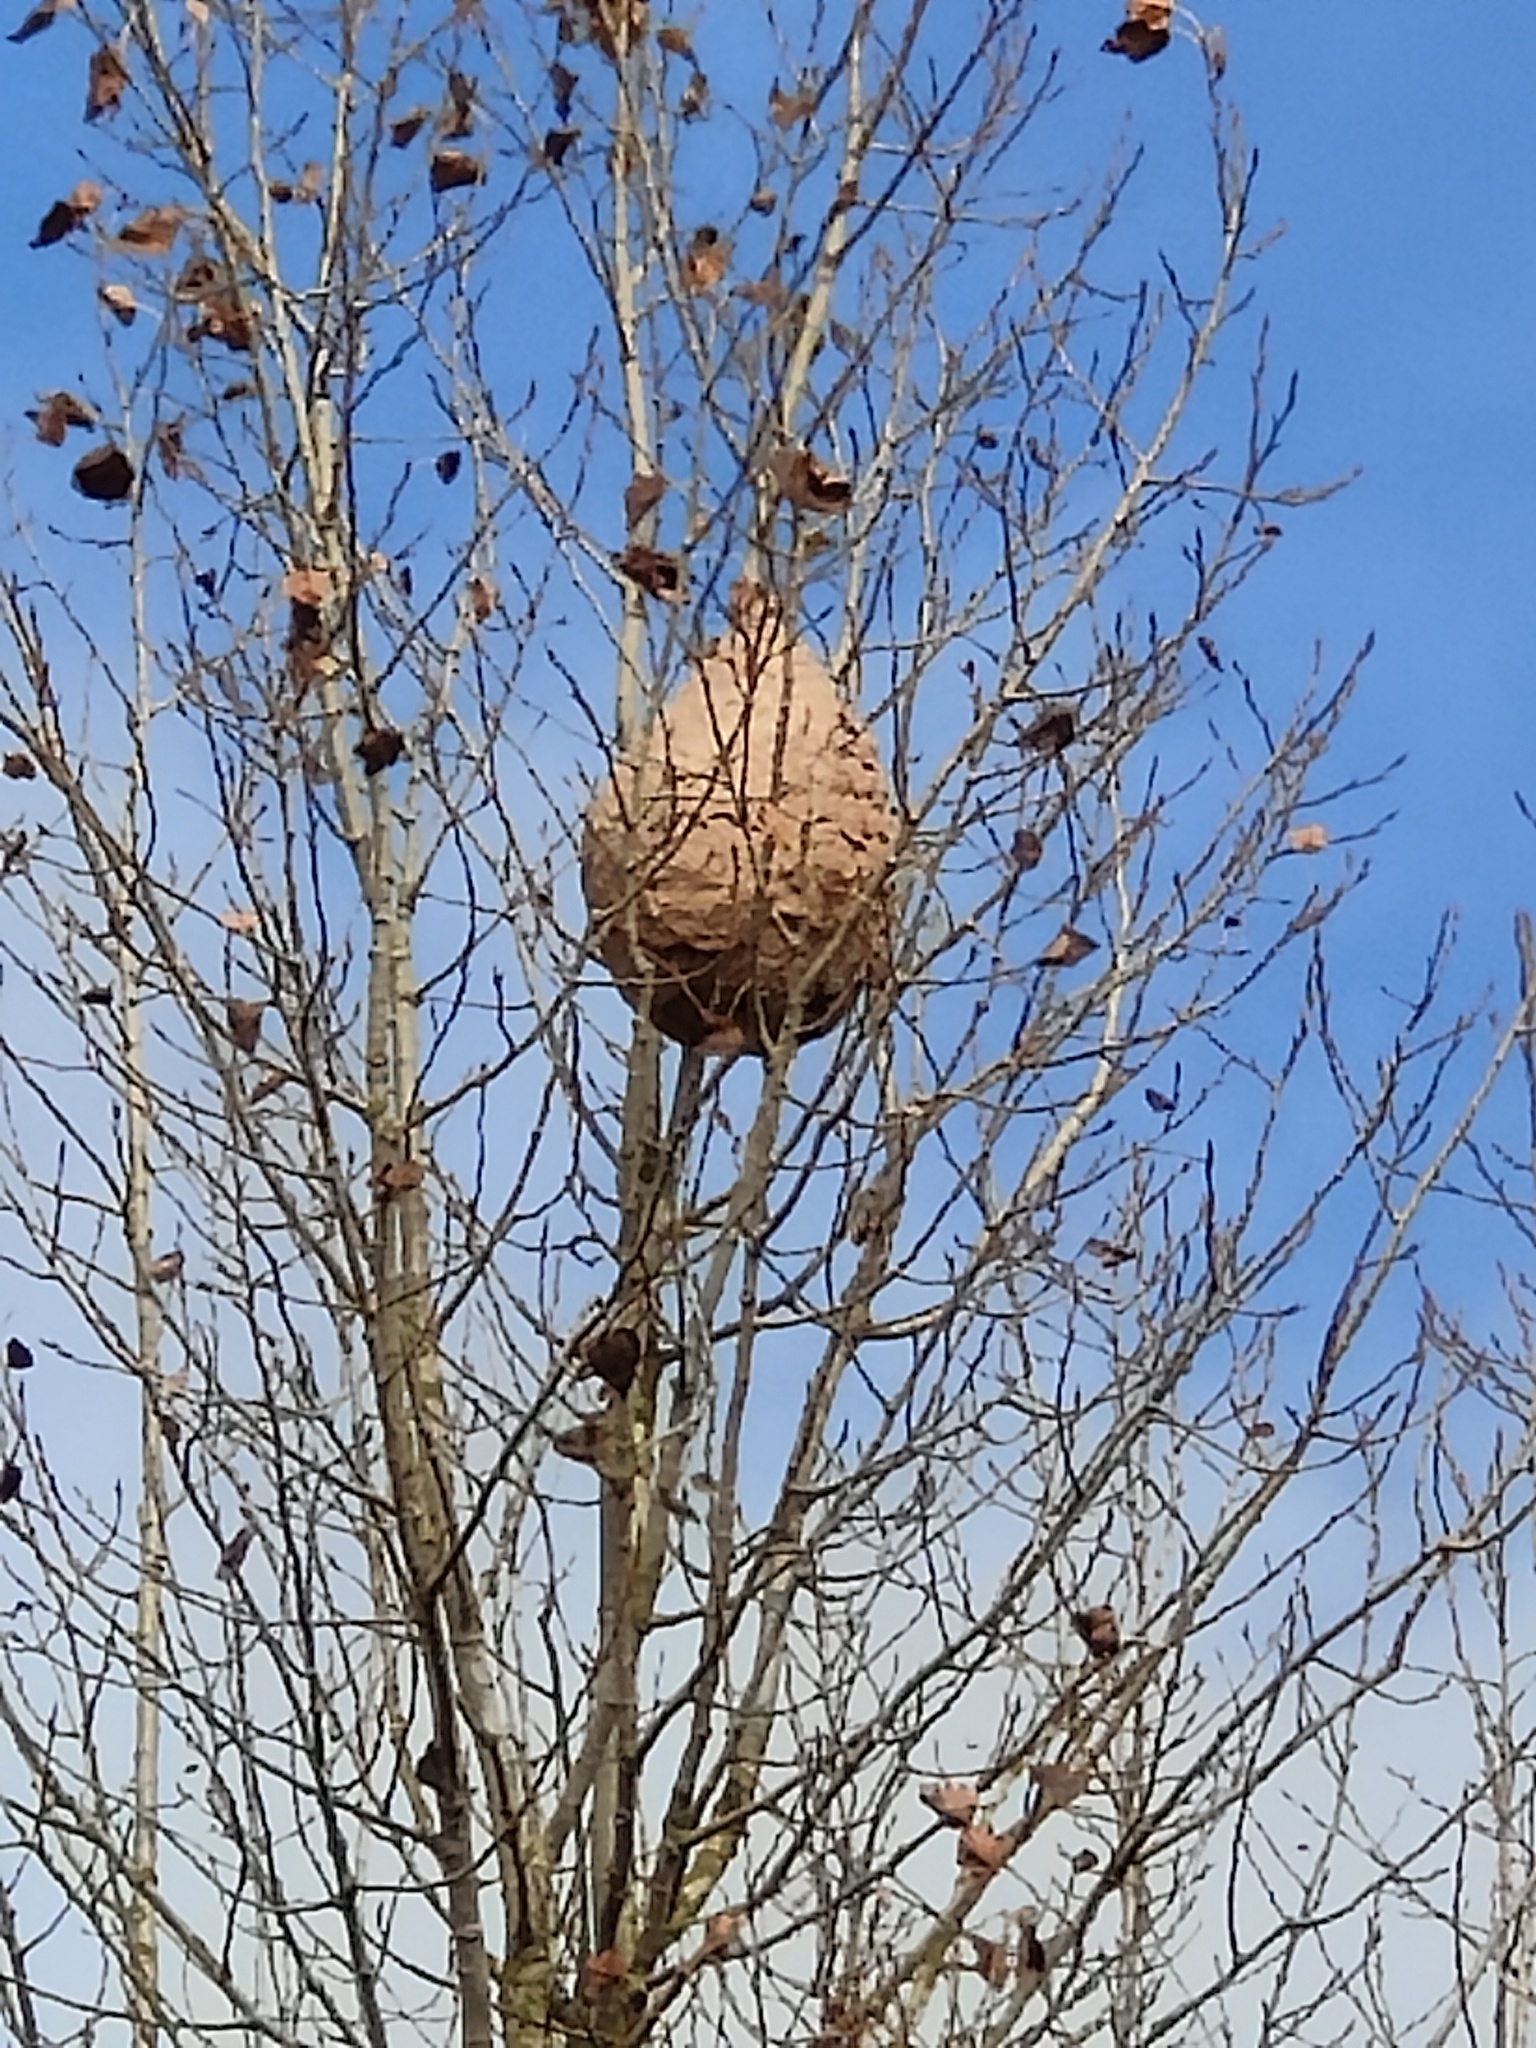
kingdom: Animalia
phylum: Arthropoda
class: Insecta
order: Hymenoptera
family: Vespidae
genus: Vespa
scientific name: Vespa velutina
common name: Asian hornet
